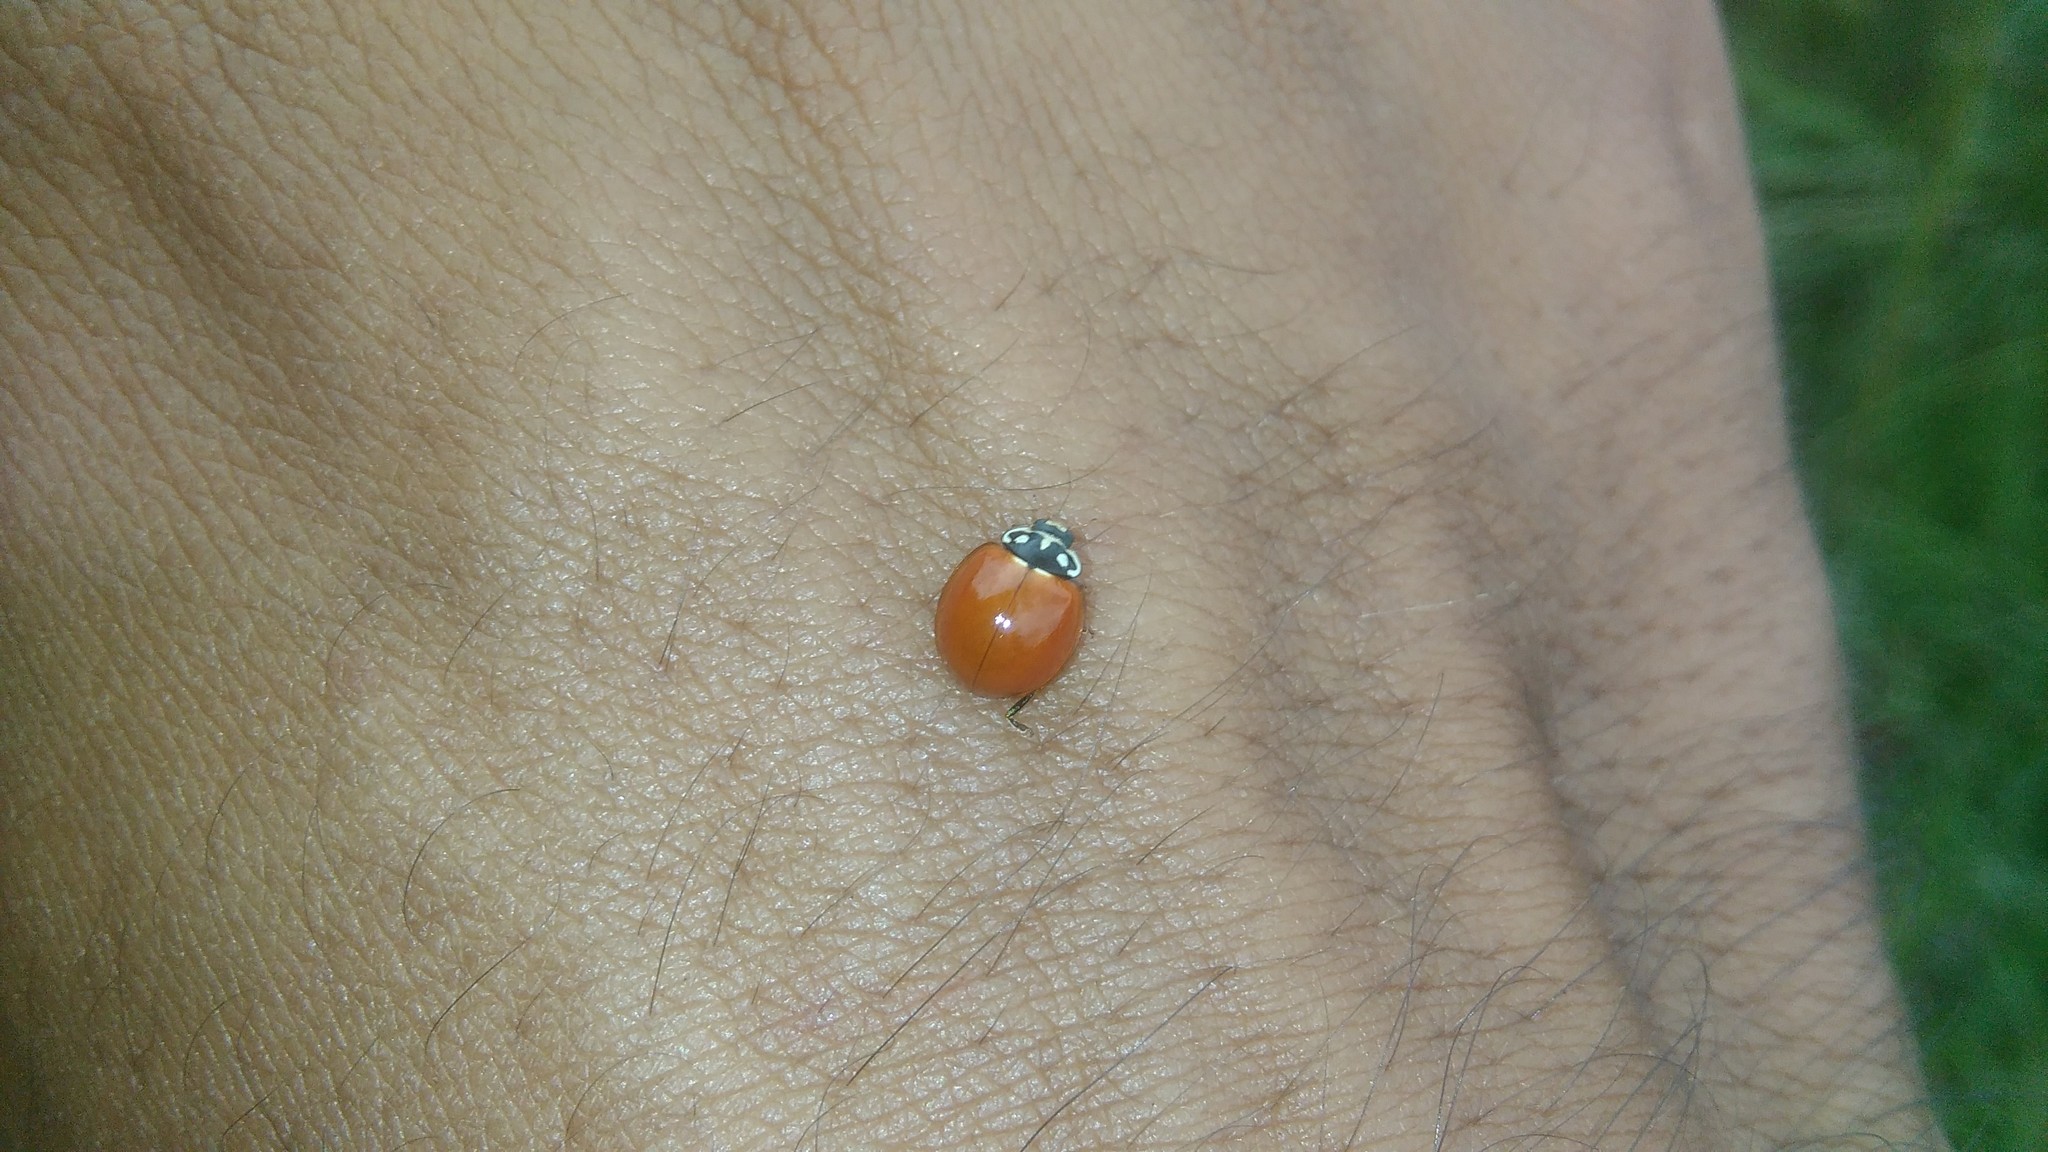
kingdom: Animalia
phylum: Arthropoda
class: Insecta
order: Coleoptera
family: Coccinellidae
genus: Cycloneda
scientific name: Cycloneda sanguinea
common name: Ladybird beetle
